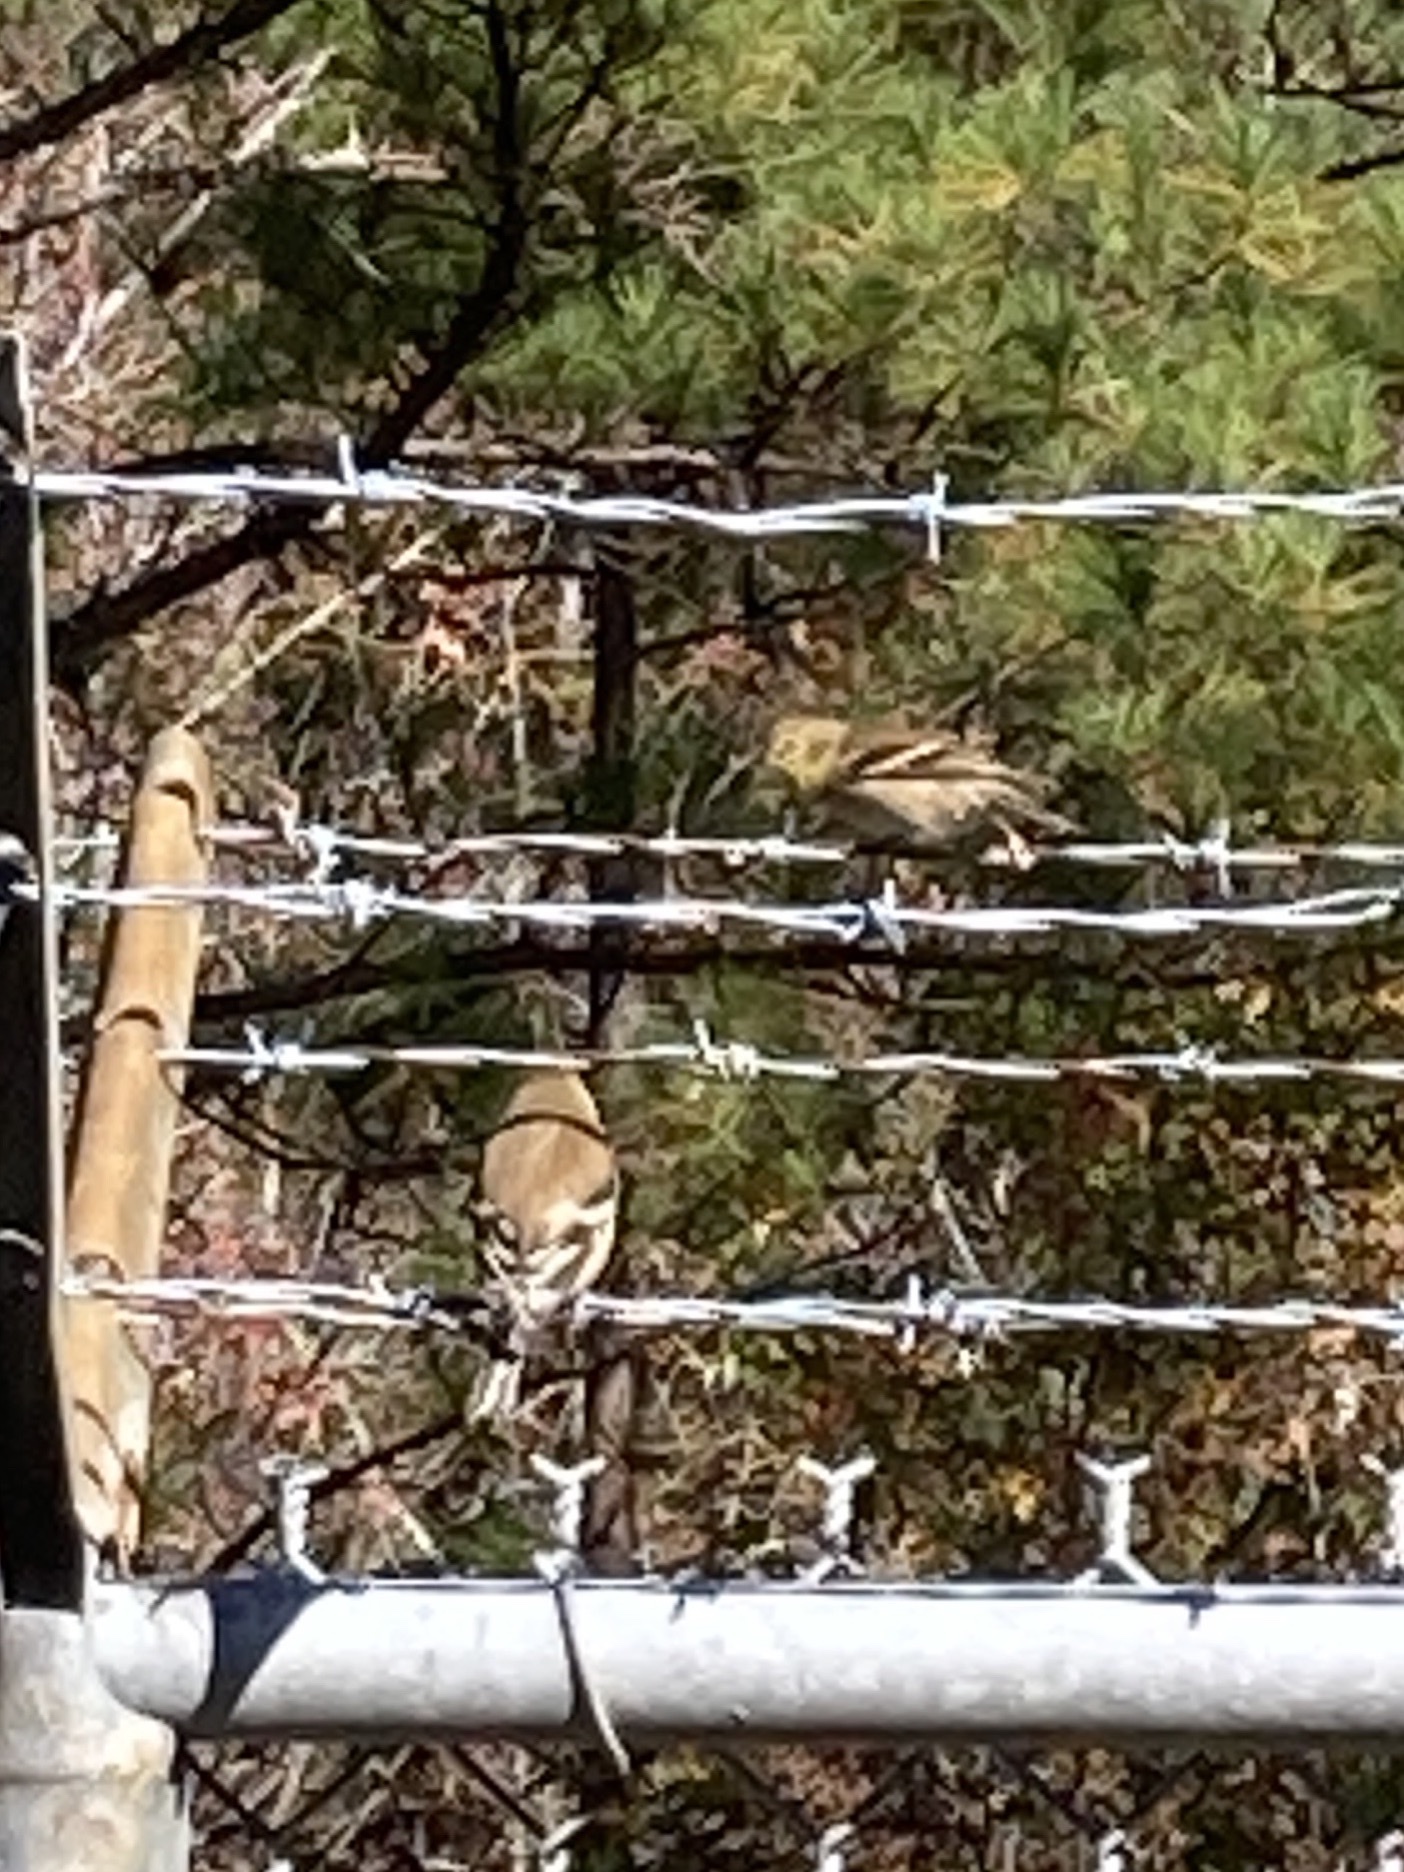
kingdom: Animalia
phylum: Chordata
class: Aves
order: Passeriformes
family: Fringillidae
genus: Spinus
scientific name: Spinus tristis
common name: American goldfinch
